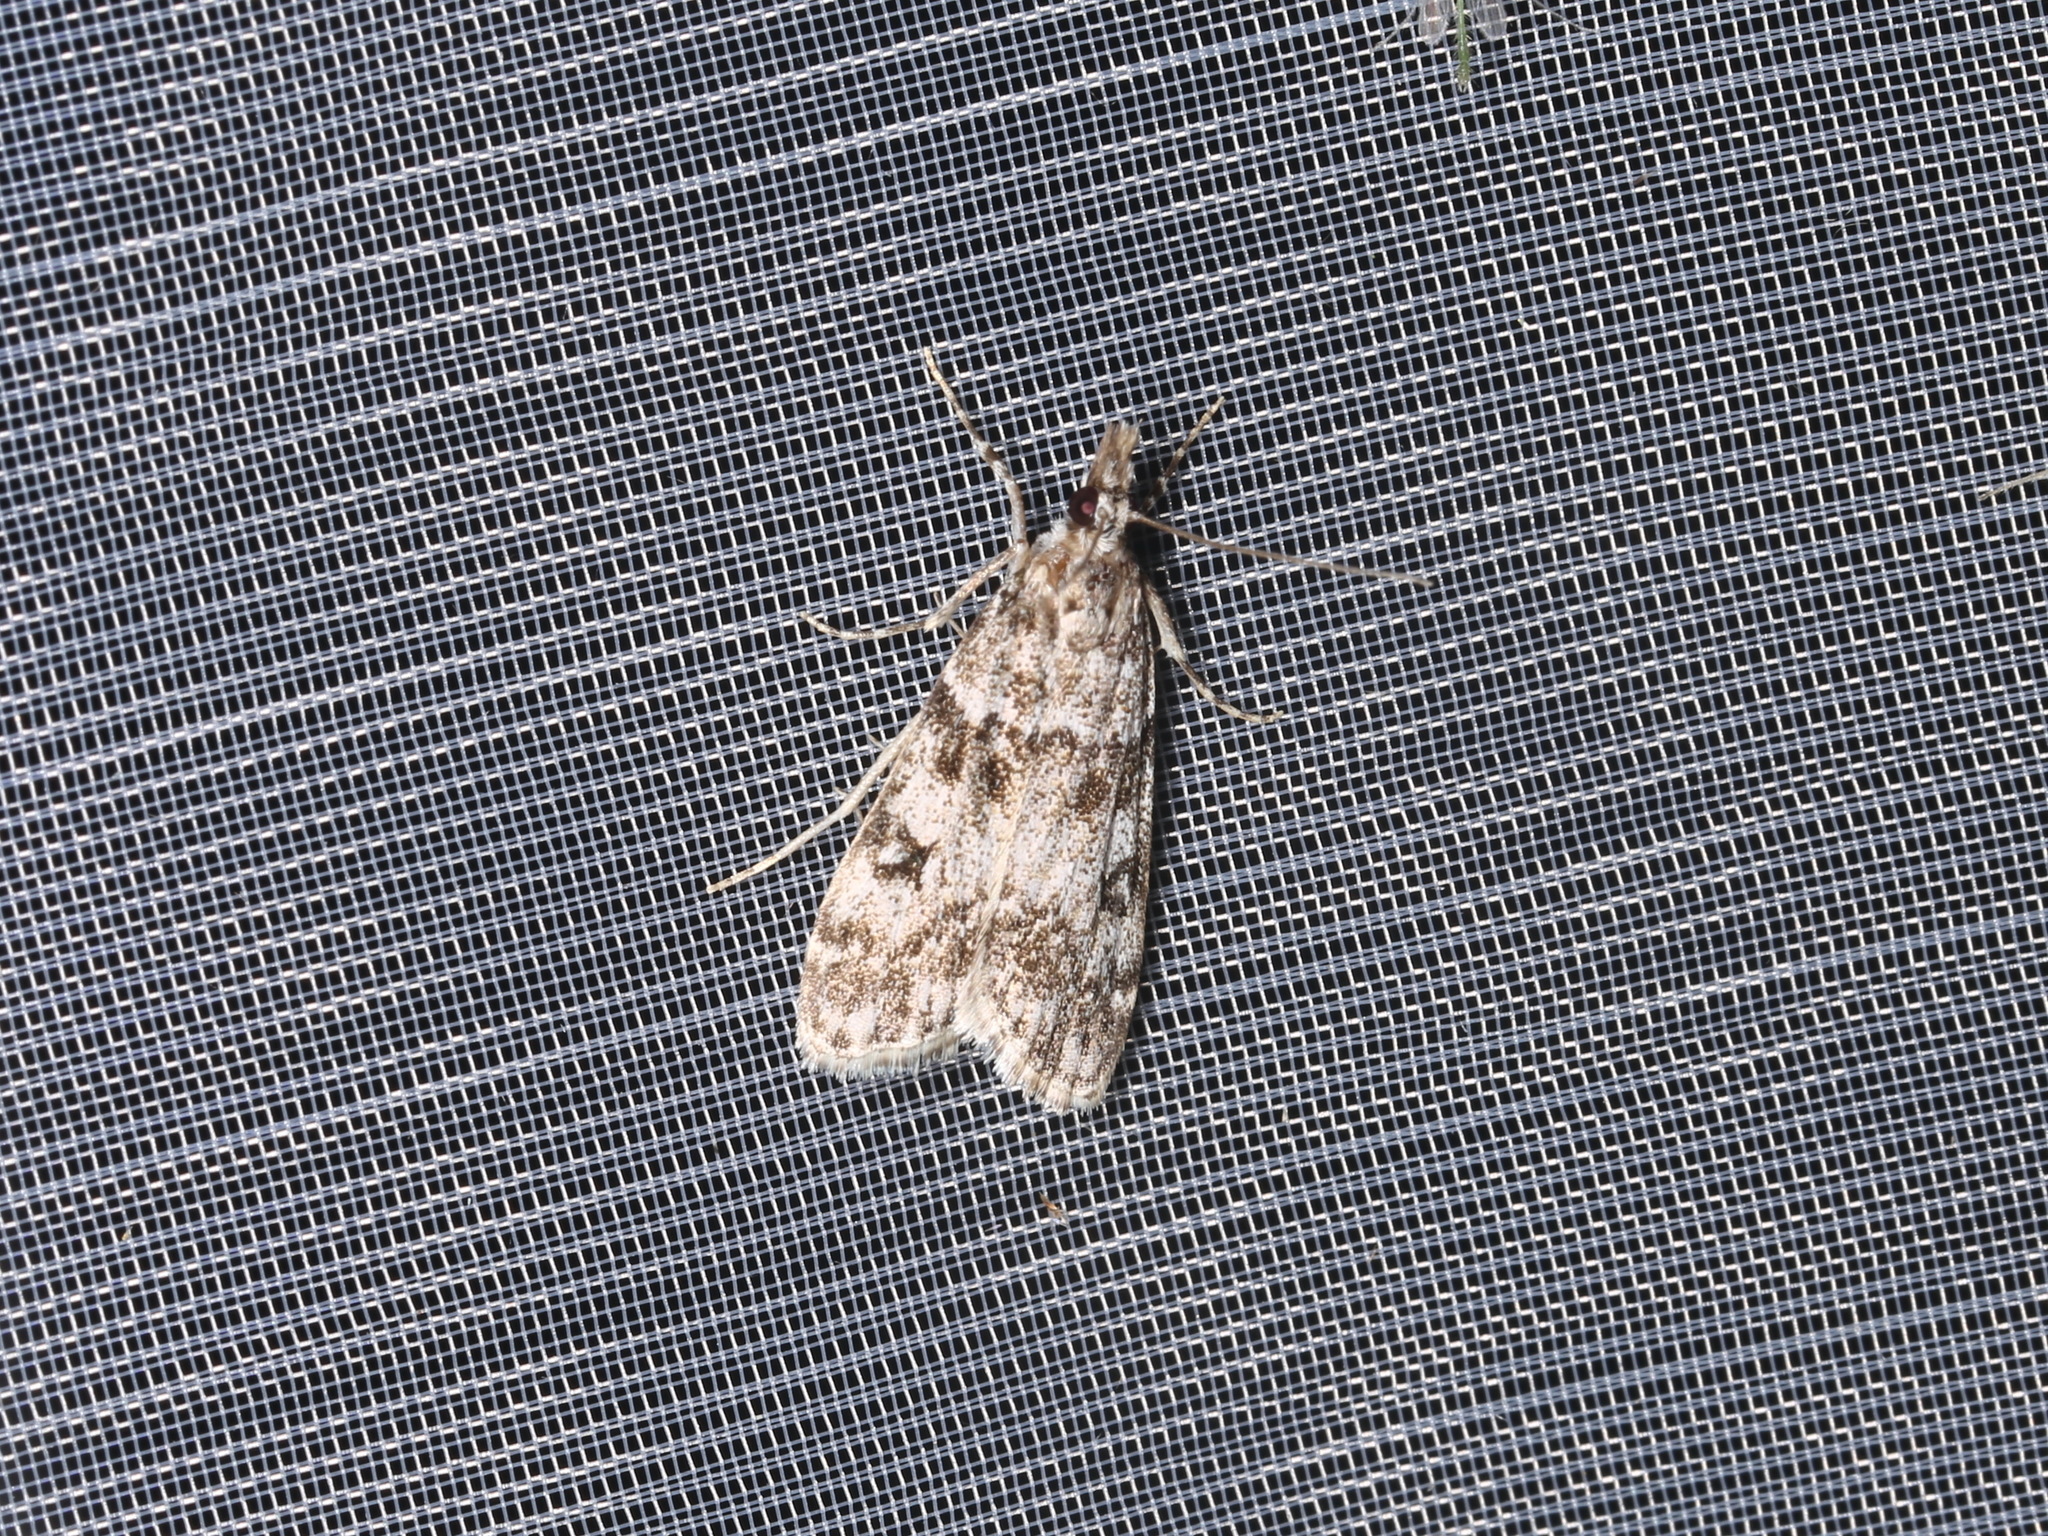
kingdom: Animalia
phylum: Arthropoda
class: Insecta
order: Lepidoptera
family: Crambidae
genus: Eudonia
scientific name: Eudonia lacustrata
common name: Little grey
